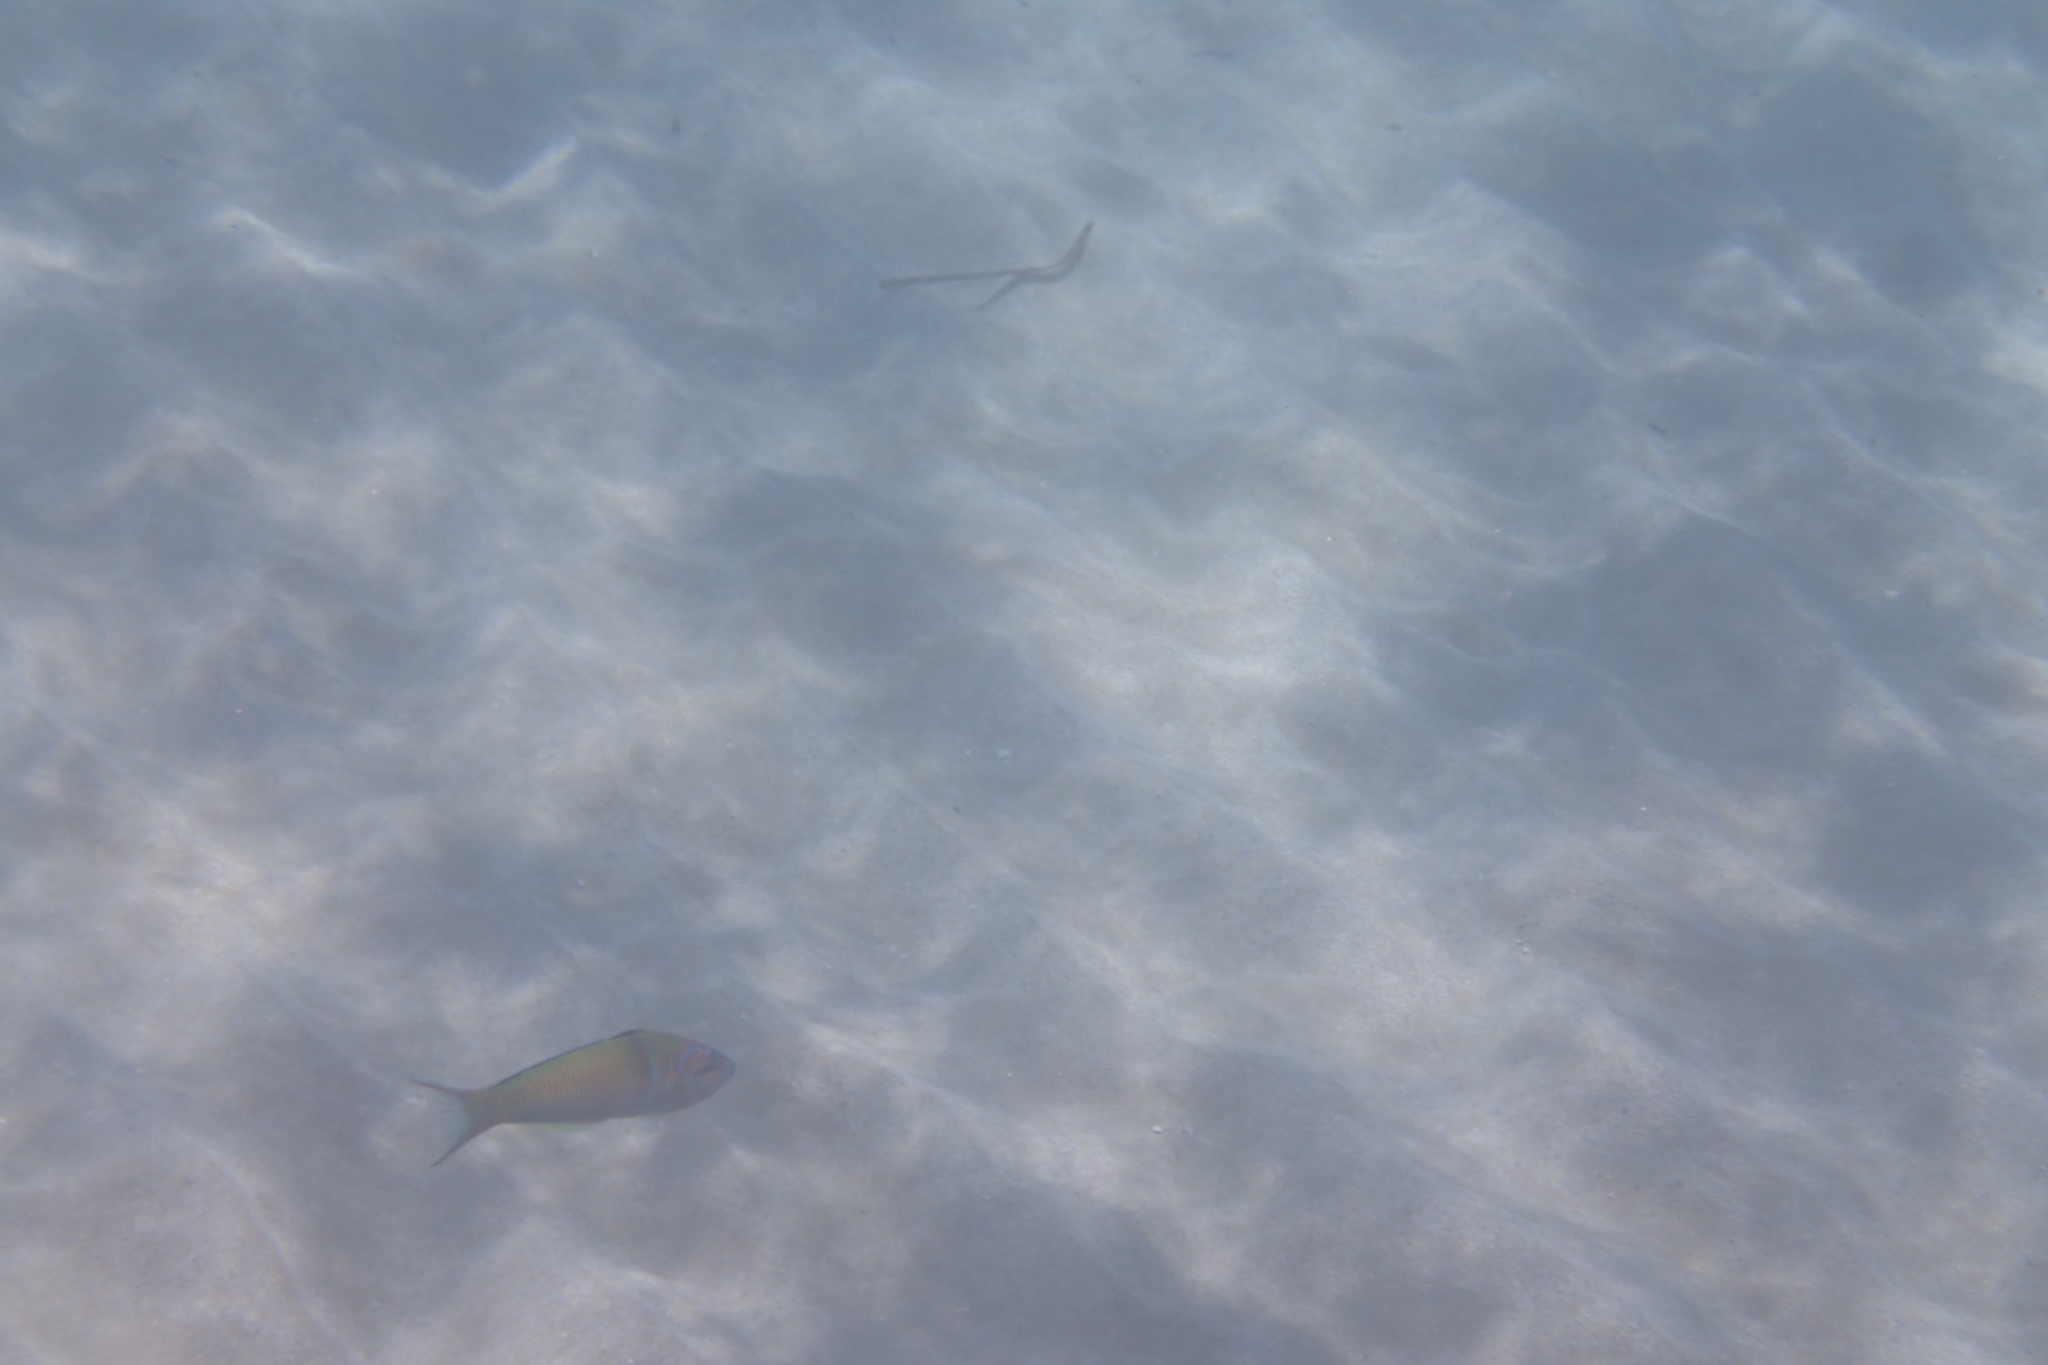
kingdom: Animalia
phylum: Chordata
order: Perciformes
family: Labridae
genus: Thalassoma
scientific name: Thalassoma pavo
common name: Ornate wrasse
